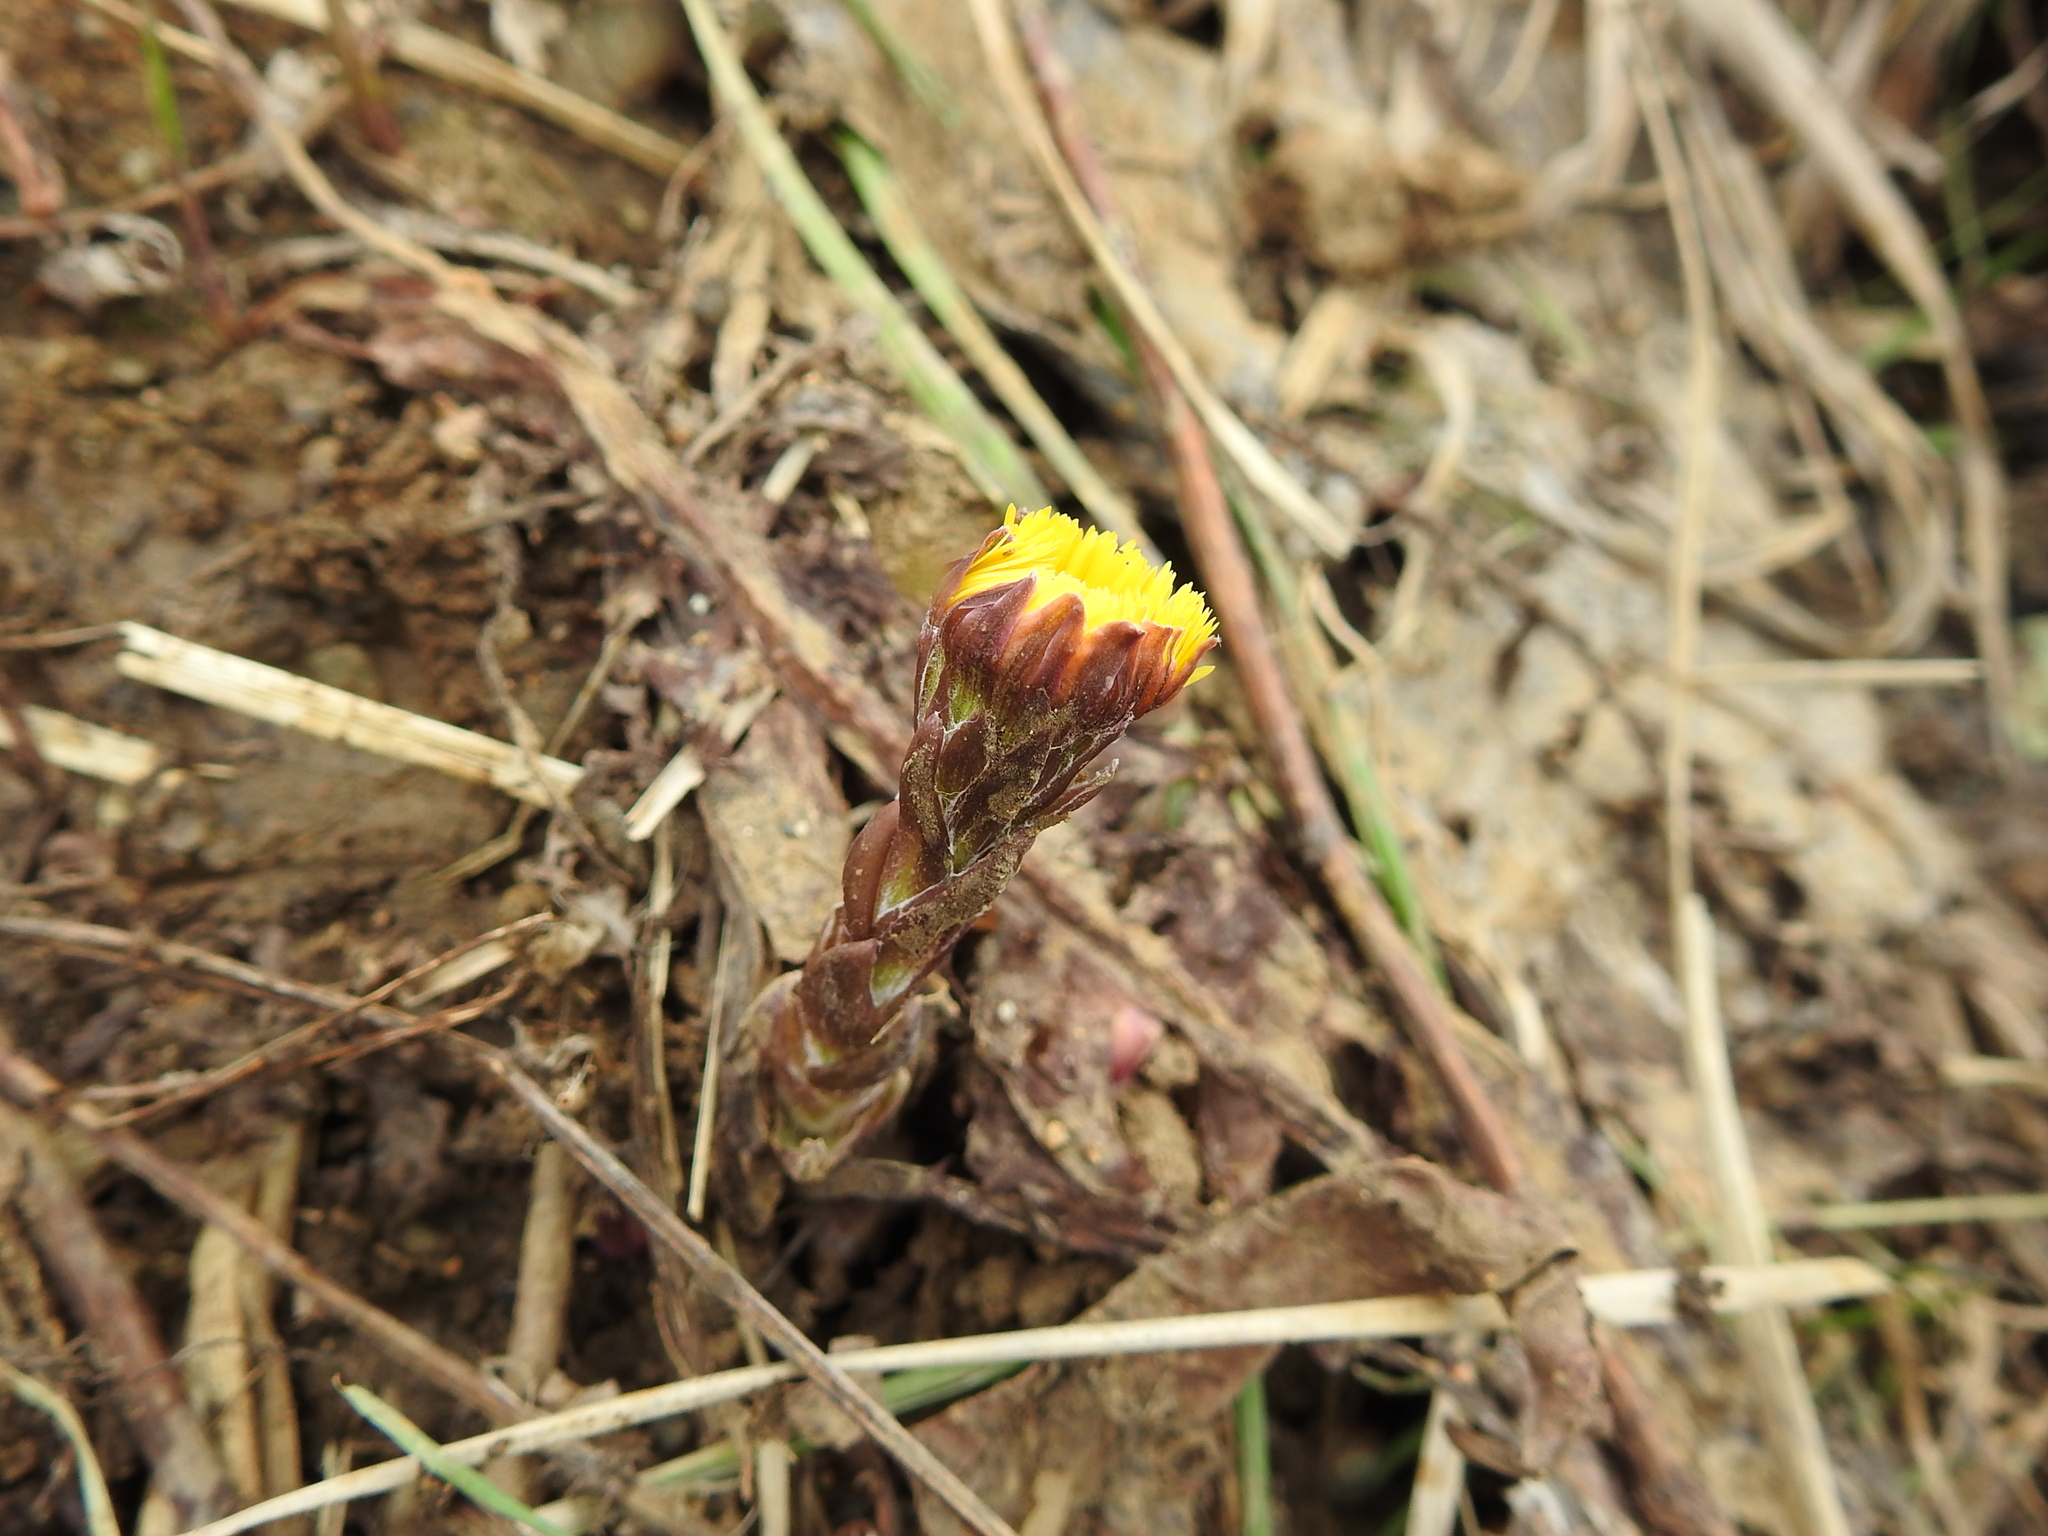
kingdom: Plantae
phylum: Tracheophyta
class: Magnoliopsida
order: Asterales
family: Asteraceae
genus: Tussilago
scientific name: Tussilago farfara
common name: Coltsfoot
